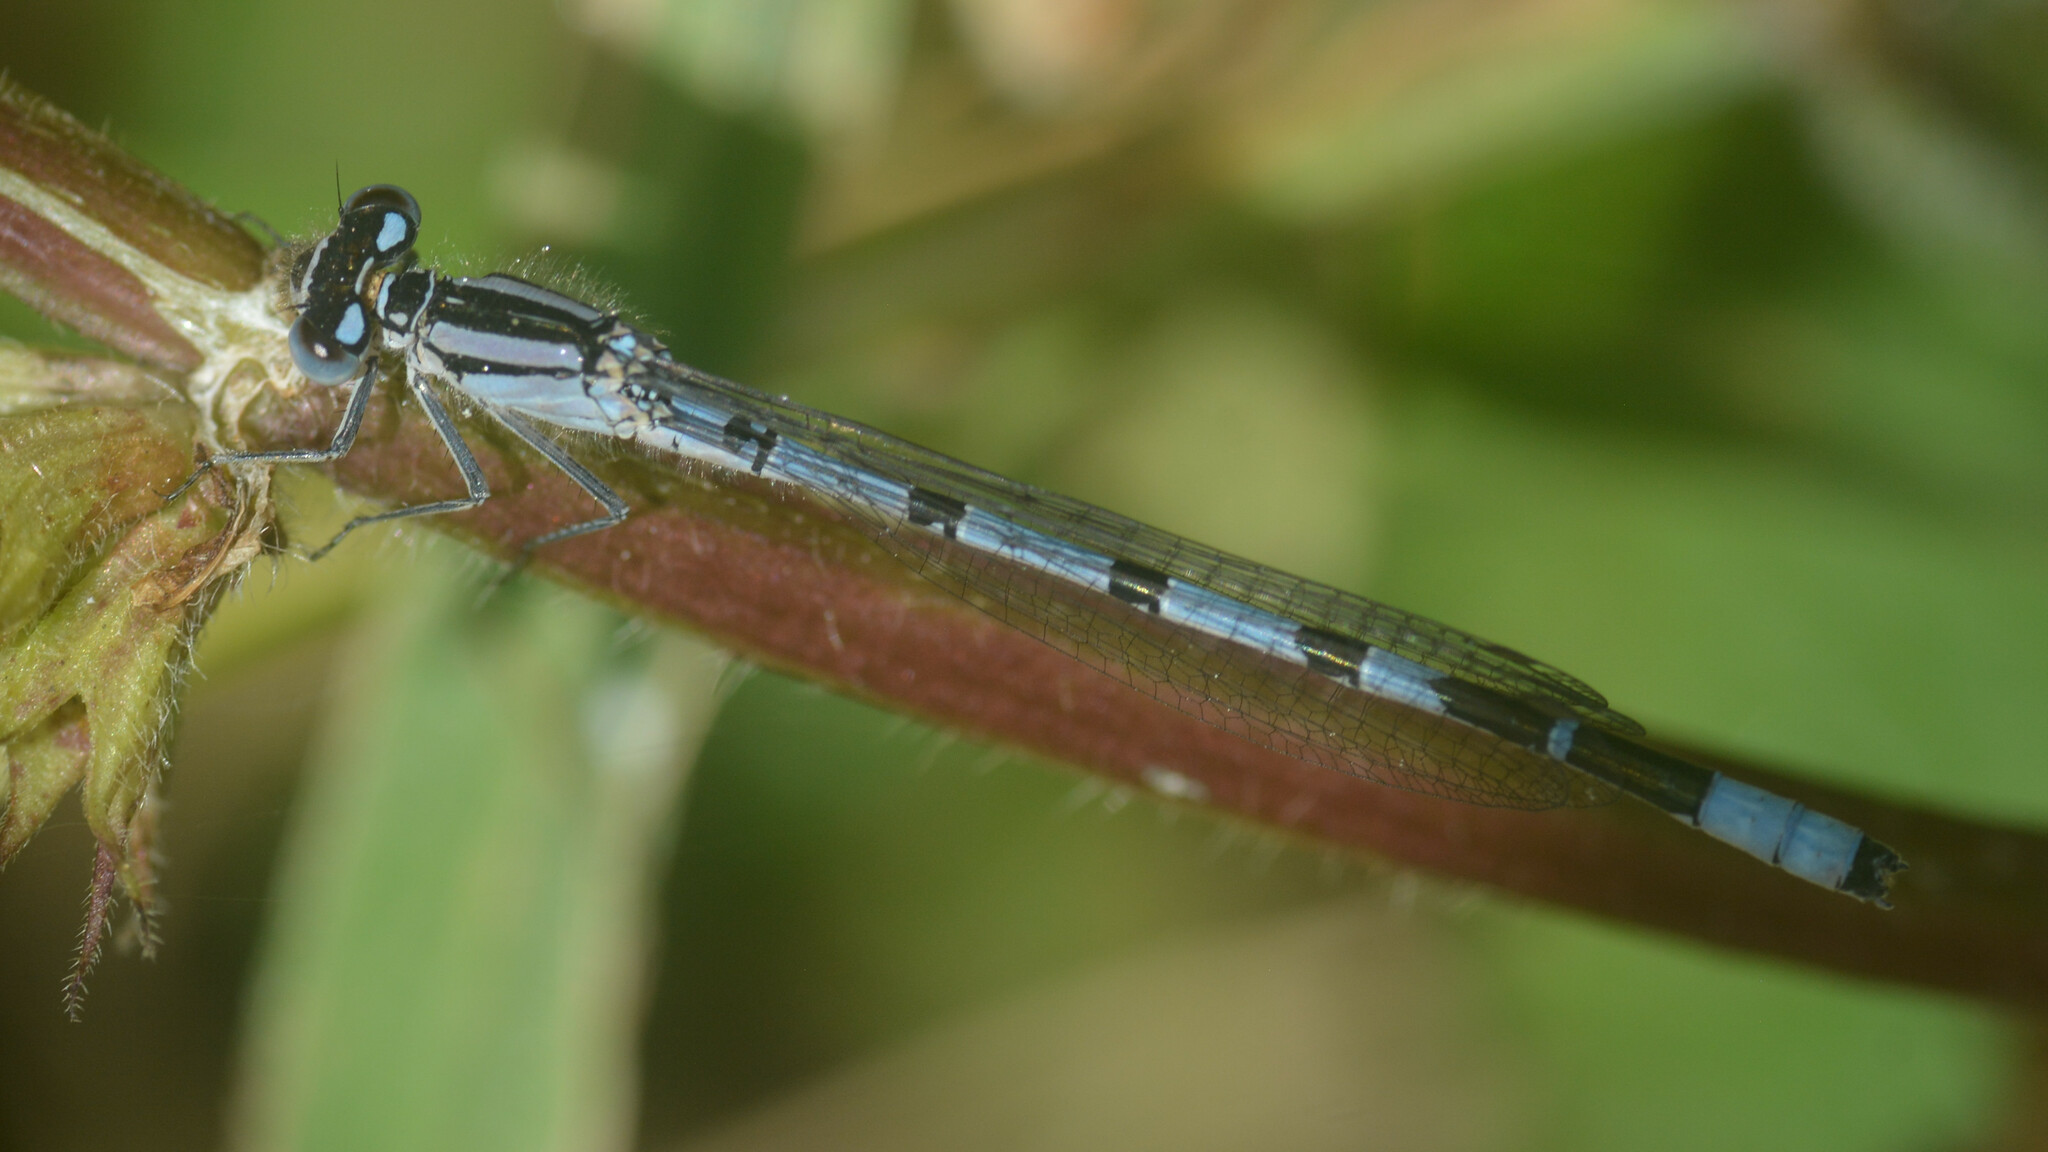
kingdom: Animalia
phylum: Arthropoda
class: Insecta
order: Odonata
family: Coenagrionidae
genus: Enallagma
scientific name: Enallagma cyathigerum
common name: Common blue damselfly
